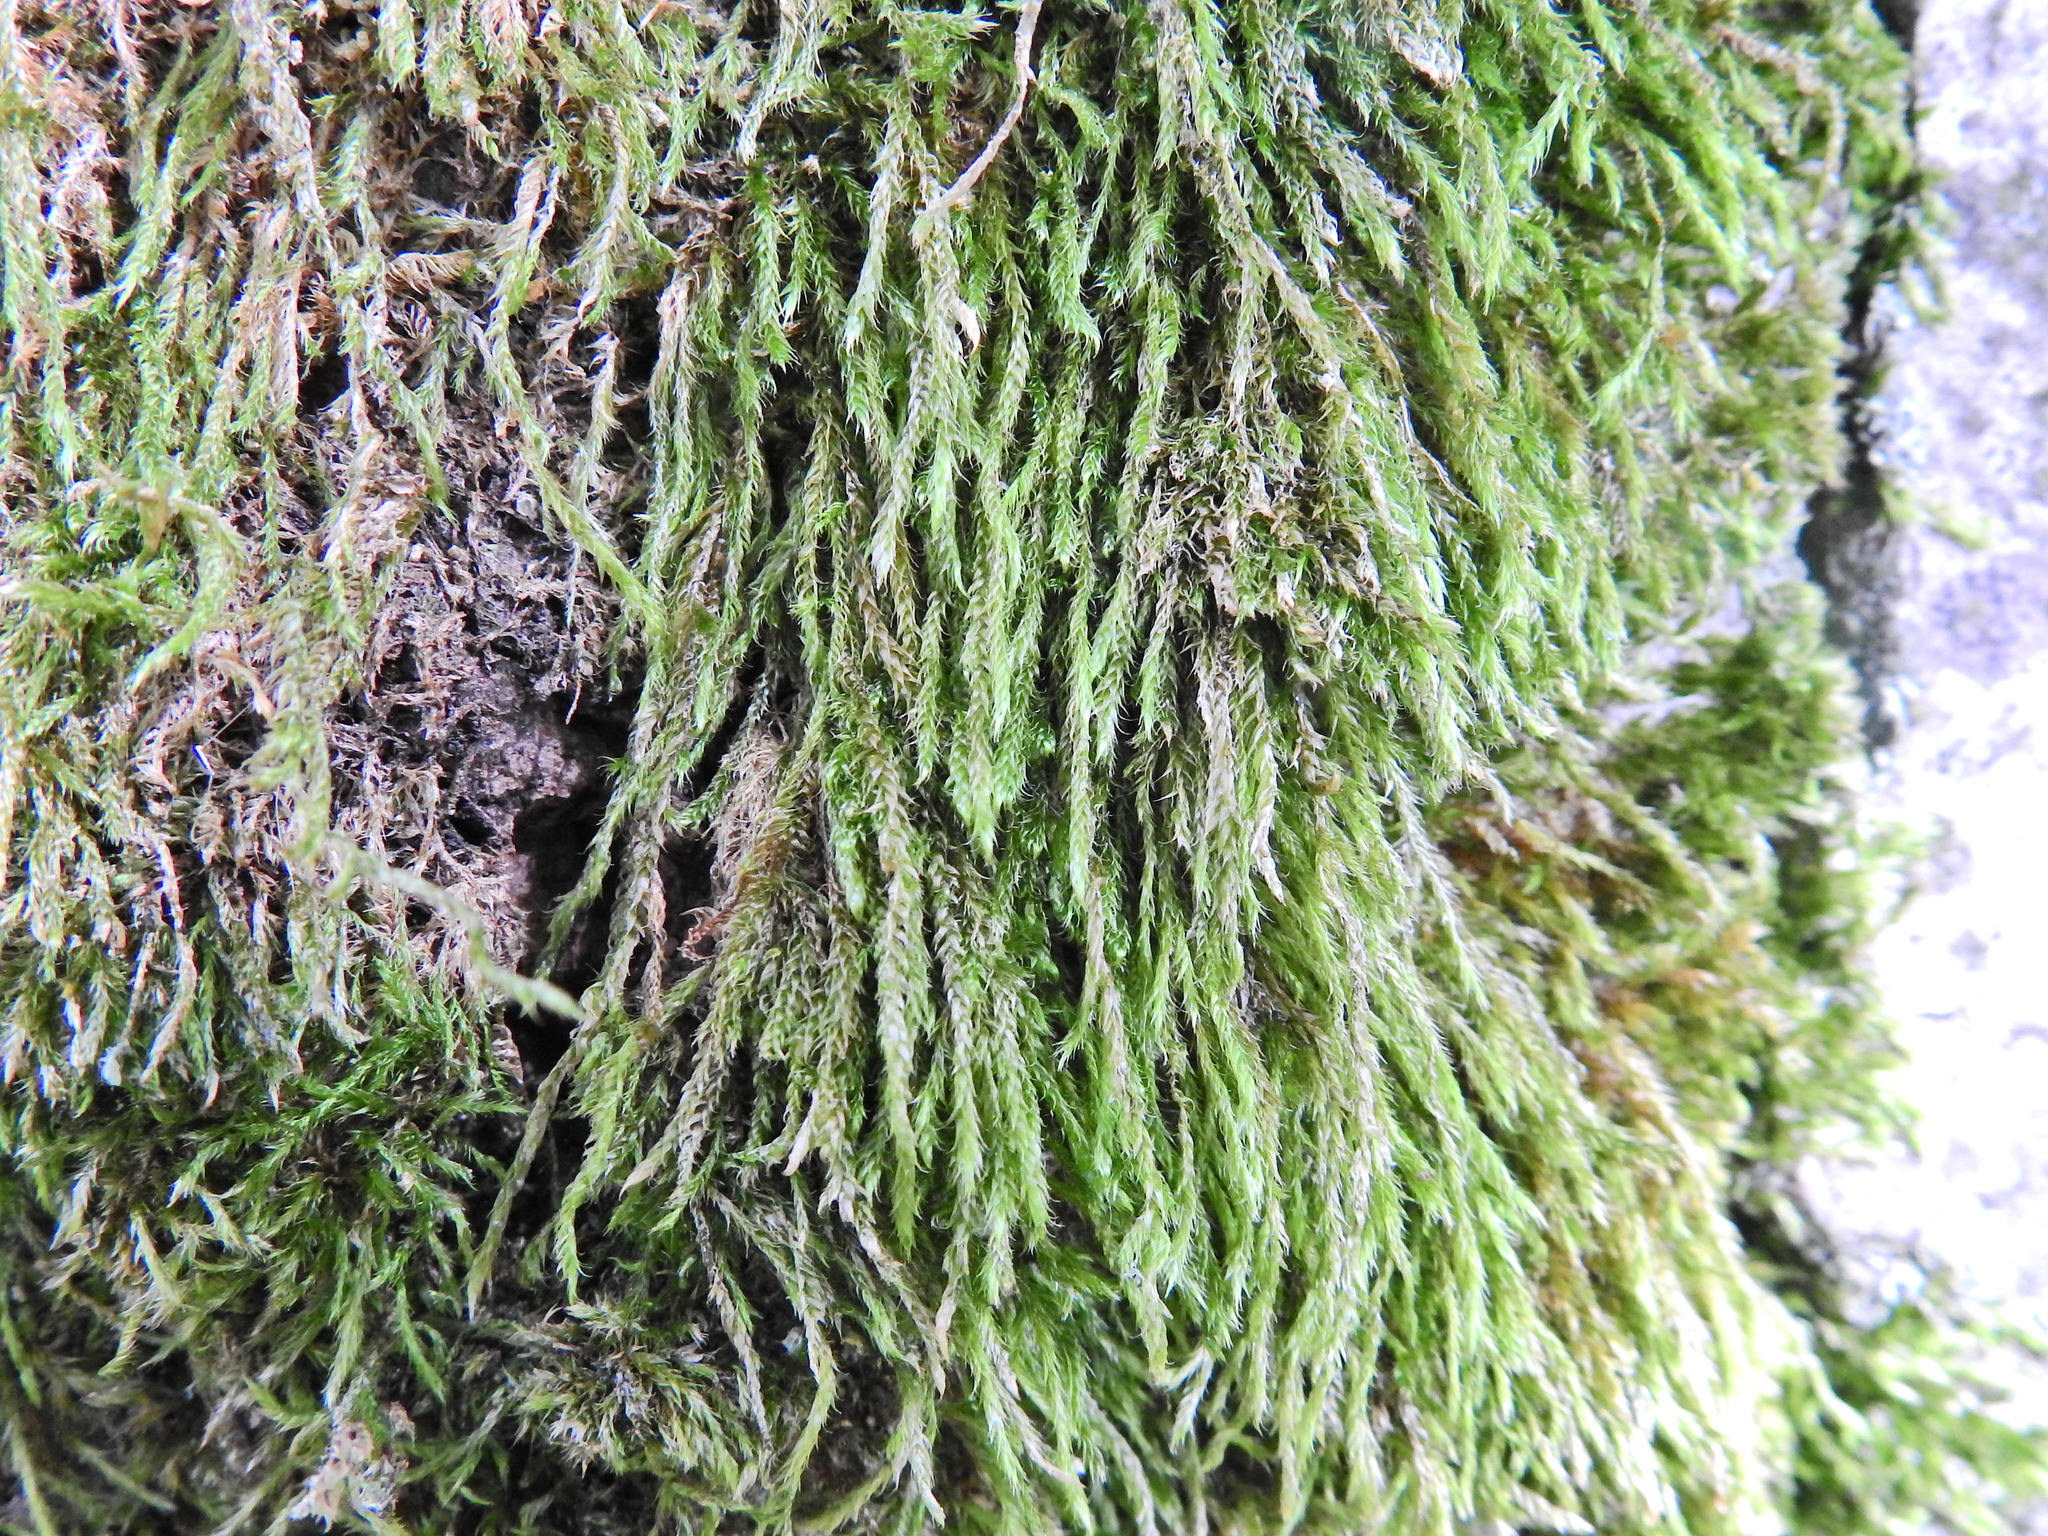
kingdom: Plantae
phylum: Bryophyta
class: Bryopsida
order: Hypnales
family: Hypnaceae
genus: Hypnum
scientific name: Hypnum cupressiforme
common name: Cypress-leaved plait-moss
